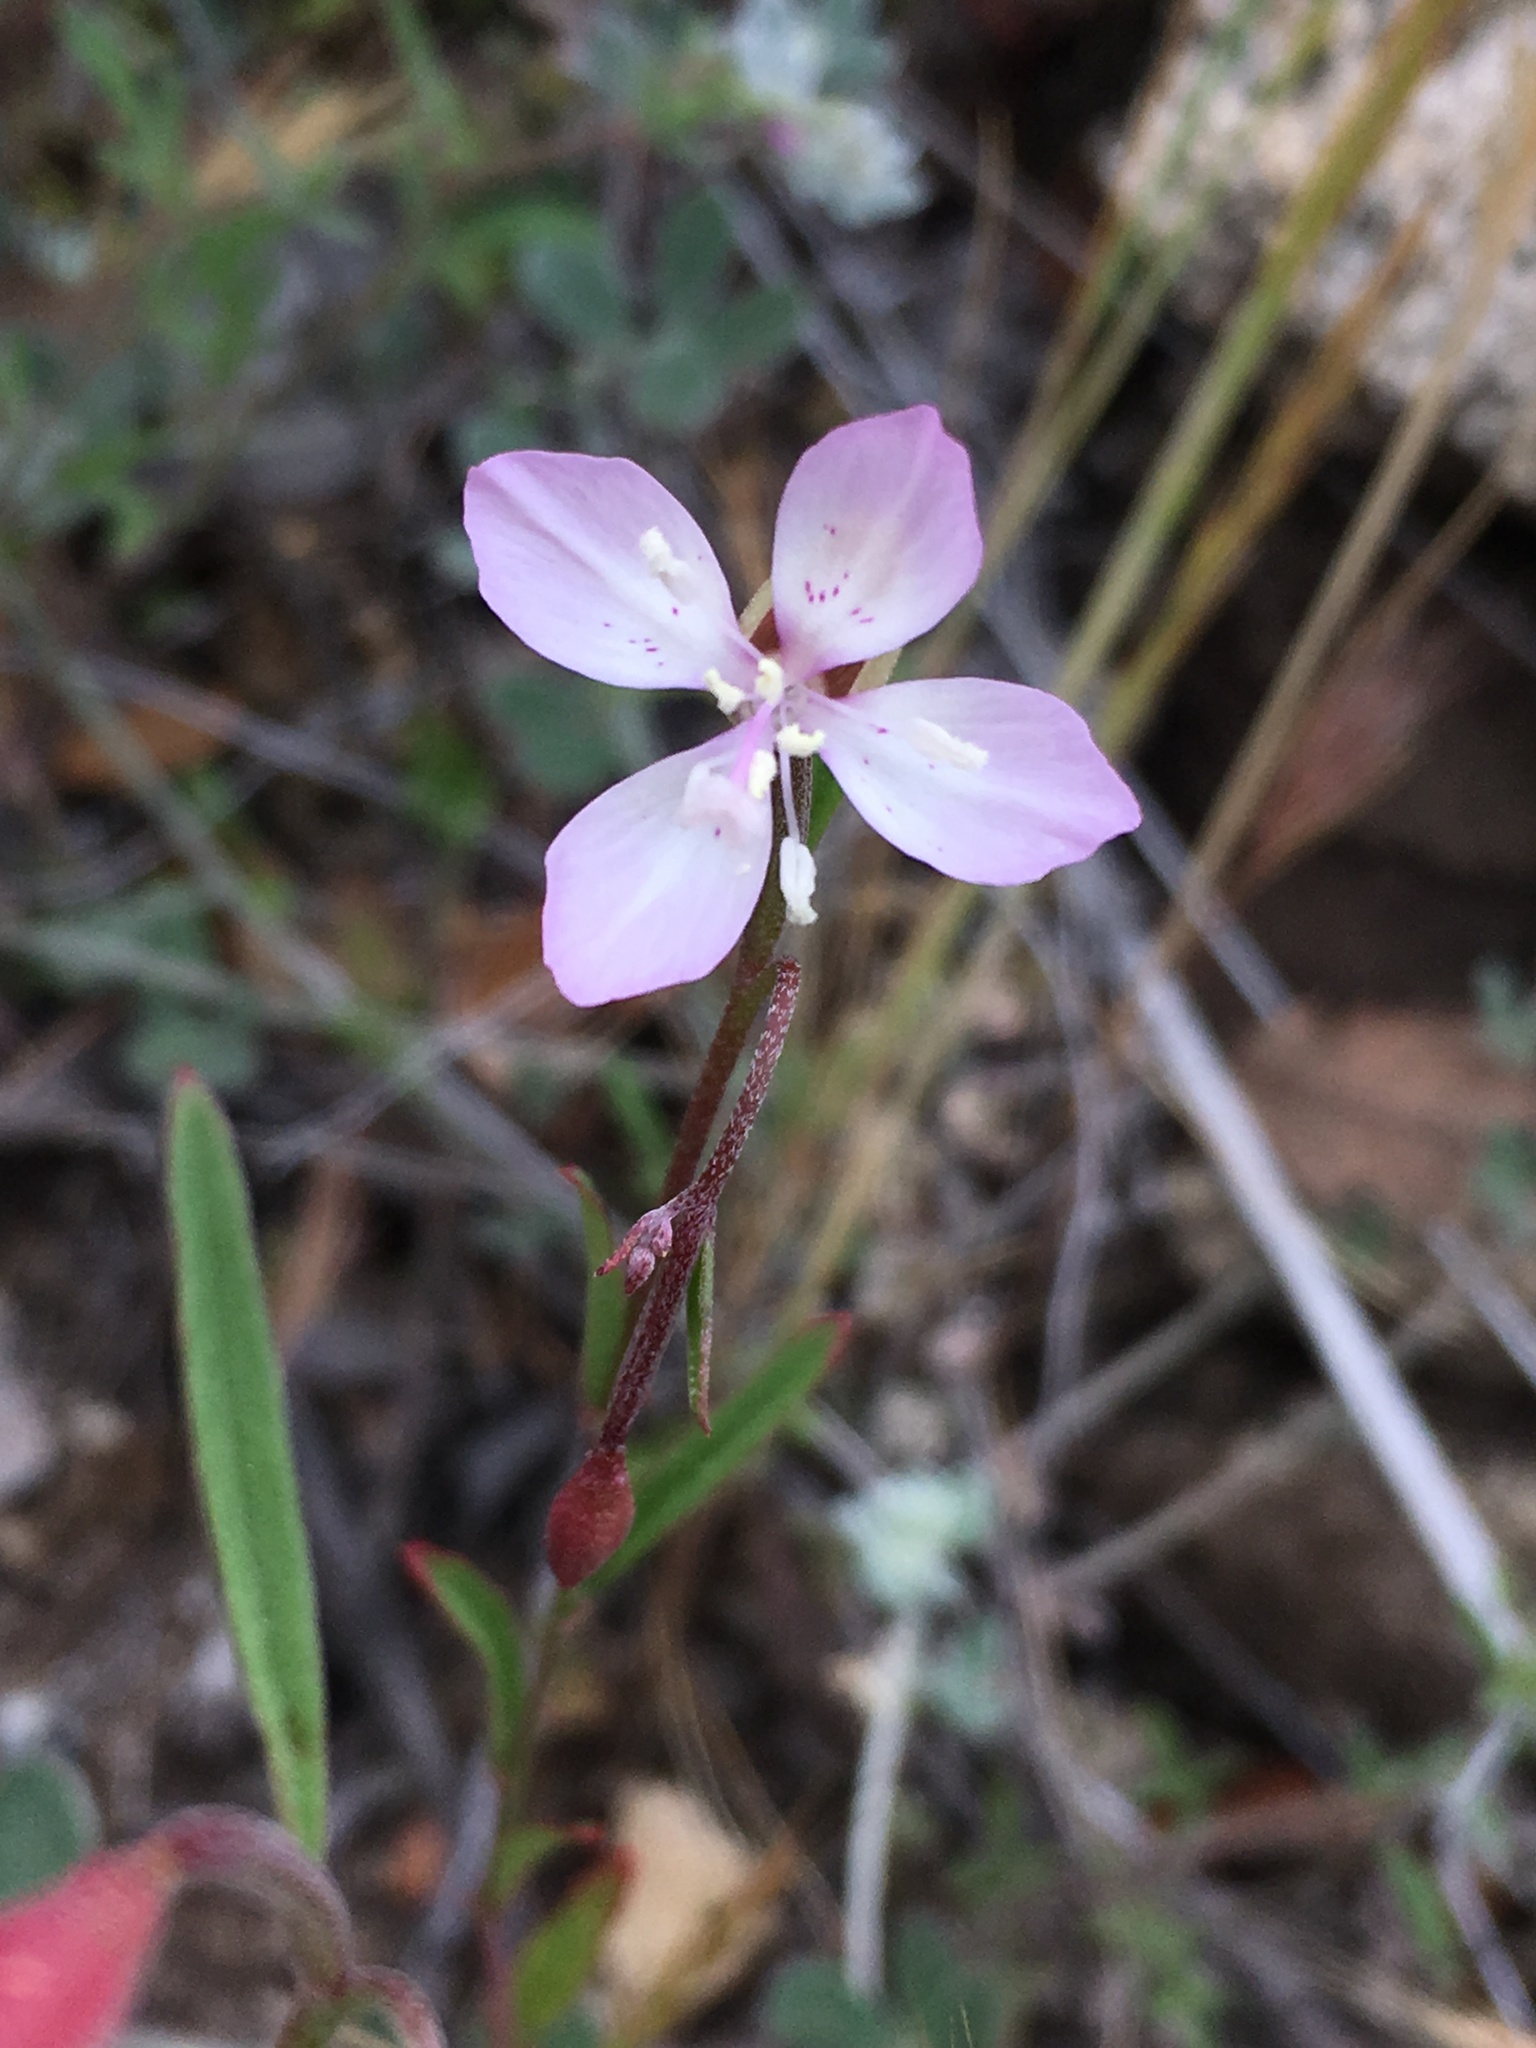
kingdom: Plantae
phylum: Tracheophyta
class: Magnoliopsida
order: Myrtales
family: Onagraceae
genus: Clarkia
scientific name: Clarkia similis
